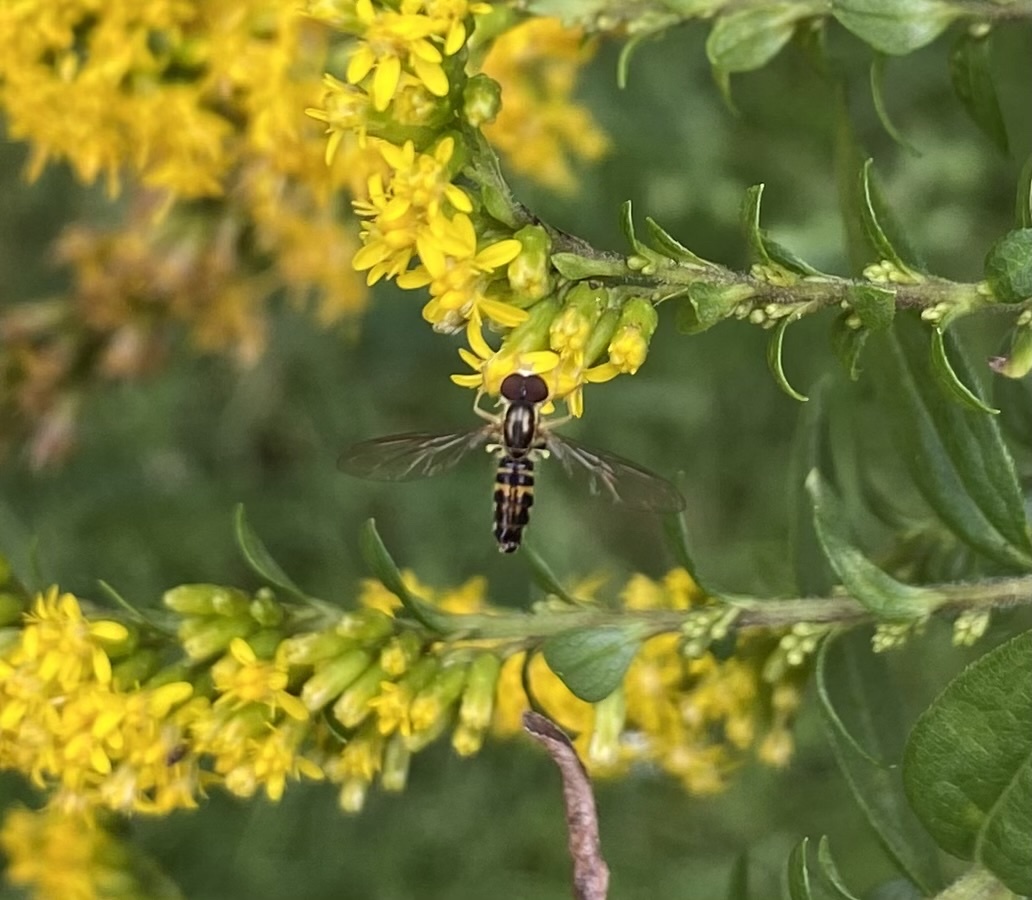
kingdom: Animalia
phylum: Arthropoda
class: Insecta
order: Diptera
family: Syrphidae
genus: Toxomerus
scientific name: Toxomerus geminatus
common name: Eastern calligrapher
